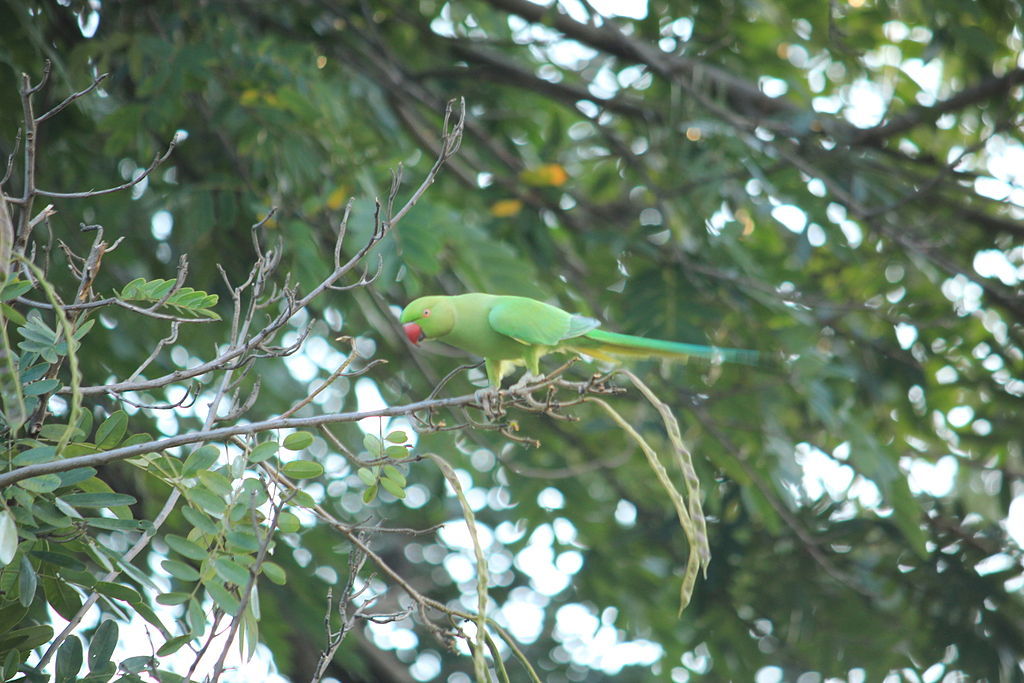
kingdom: Animalia
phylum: Chordata
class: Aves
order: Psittaciformes
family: Psittacidae
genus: Psittacula
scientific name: Psittacula krameri
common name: Rose-ringed parakeet
